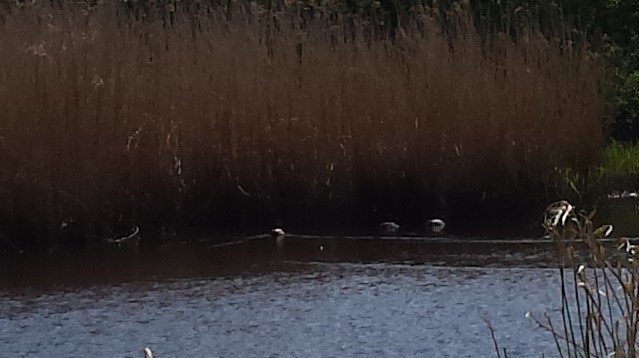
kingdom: Animalia
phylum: Chordata
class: Aves
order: Anseriformes
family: Anatidae
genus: Anas
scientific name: Anas platyrhynchos
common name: Mallard
